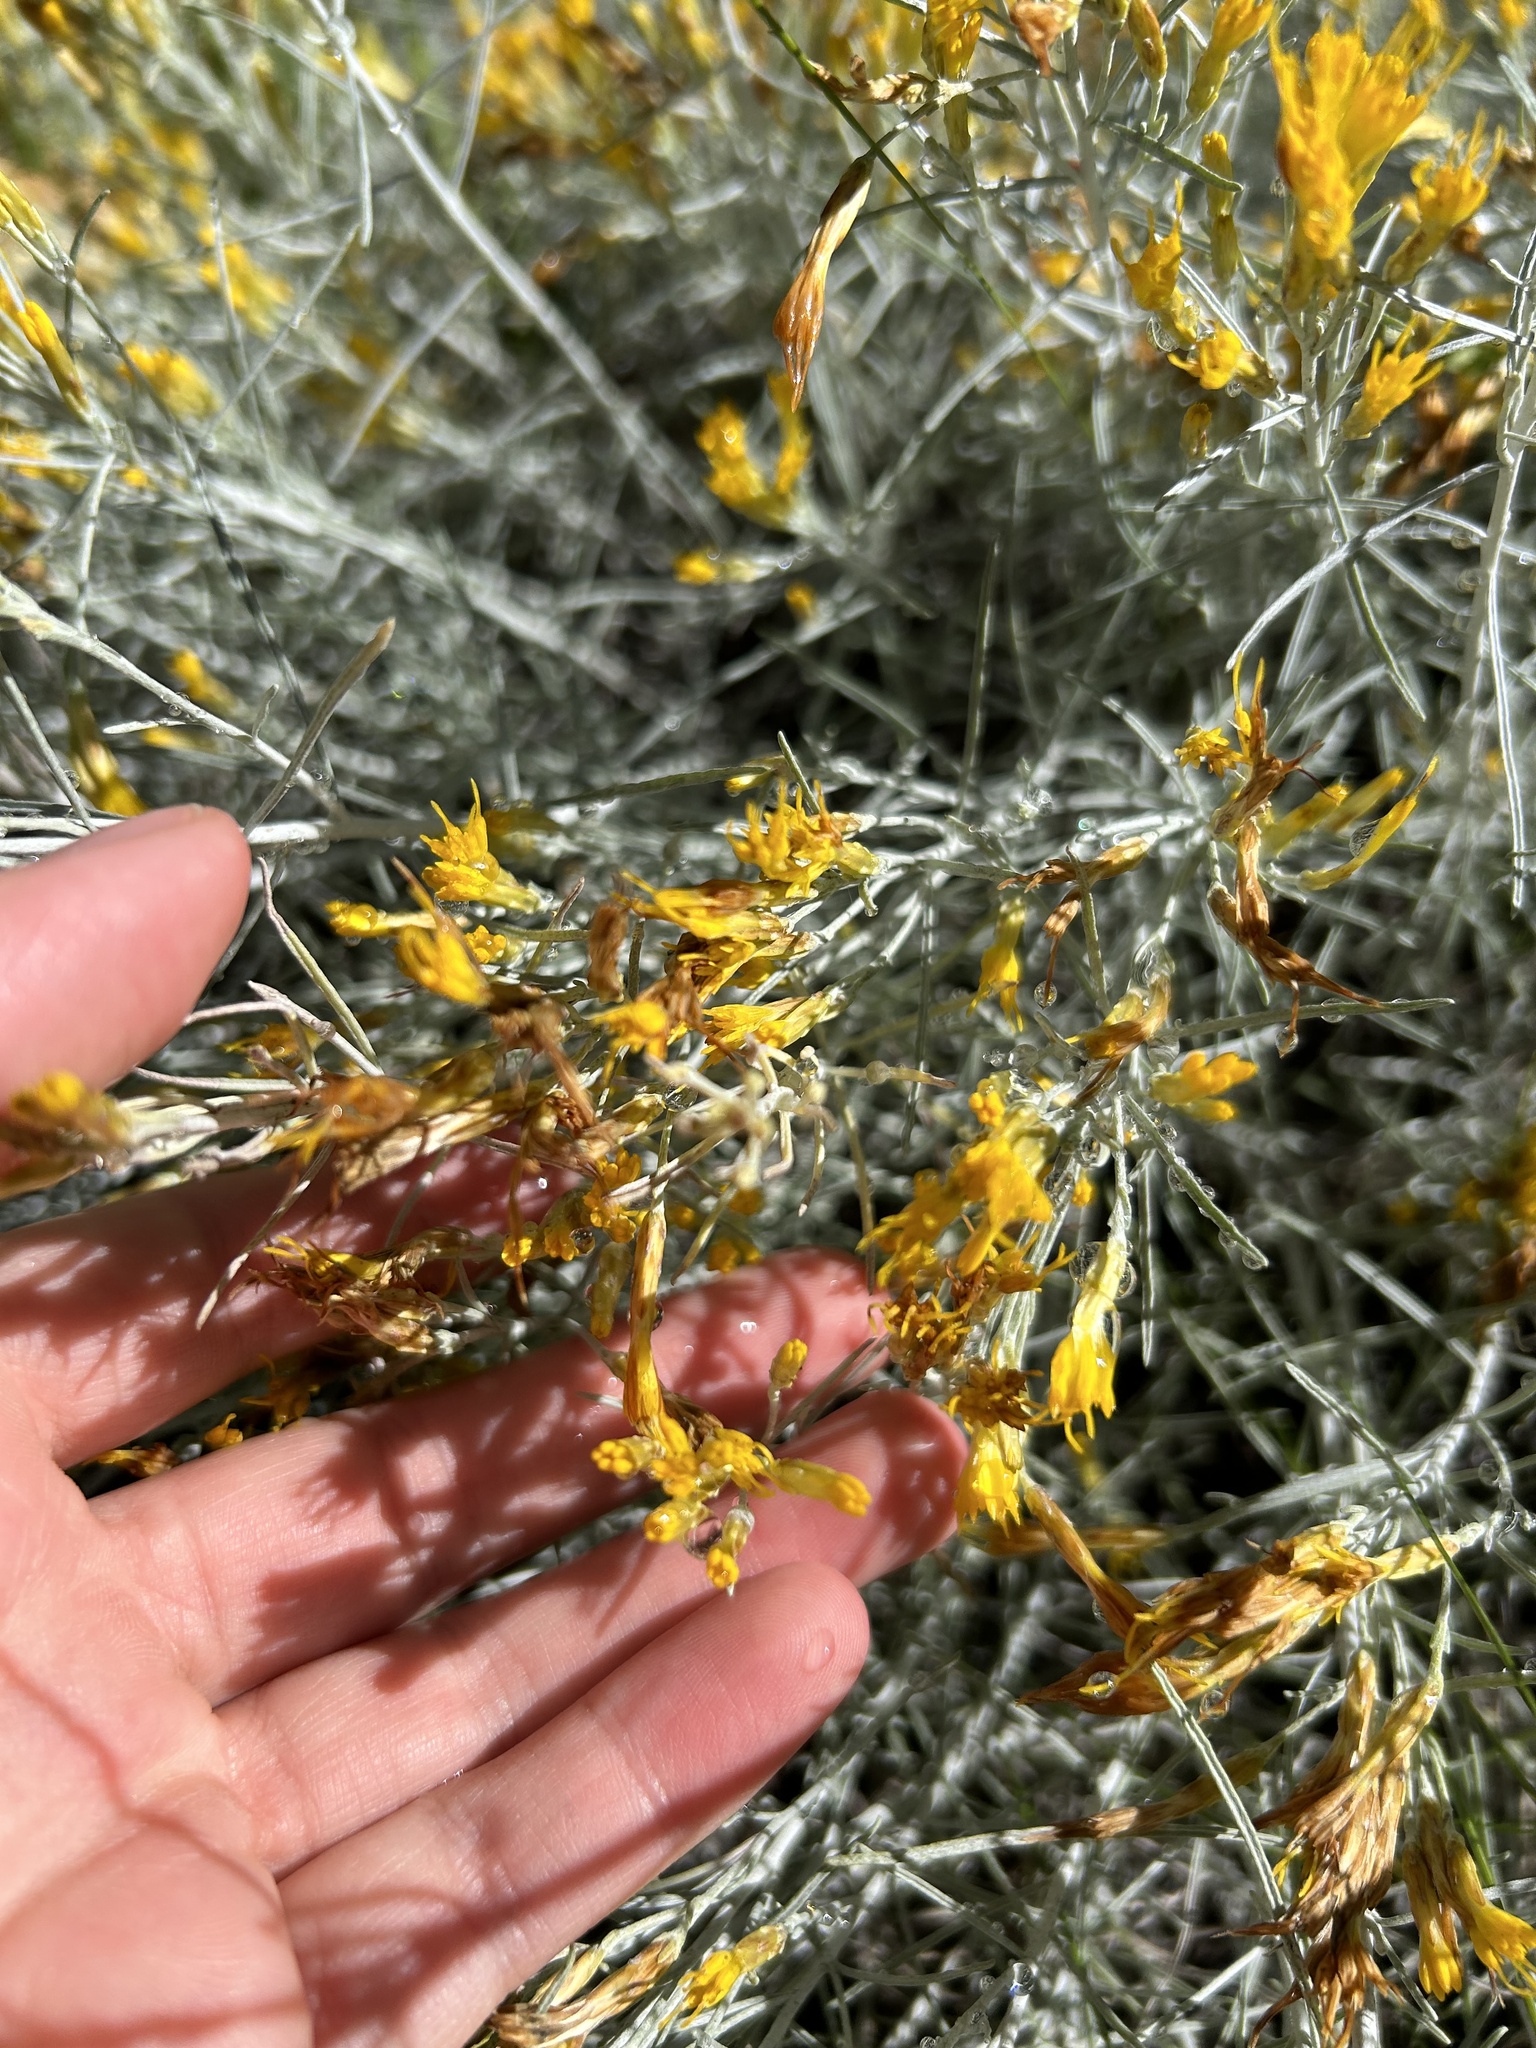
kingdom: Plantae
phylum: Tracheophyta
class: Magnoliopsida
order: Asterales
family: Asteraceae
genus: Ericameria
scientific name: Ericameria nauseosa
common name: Rubber rabbitbrush
